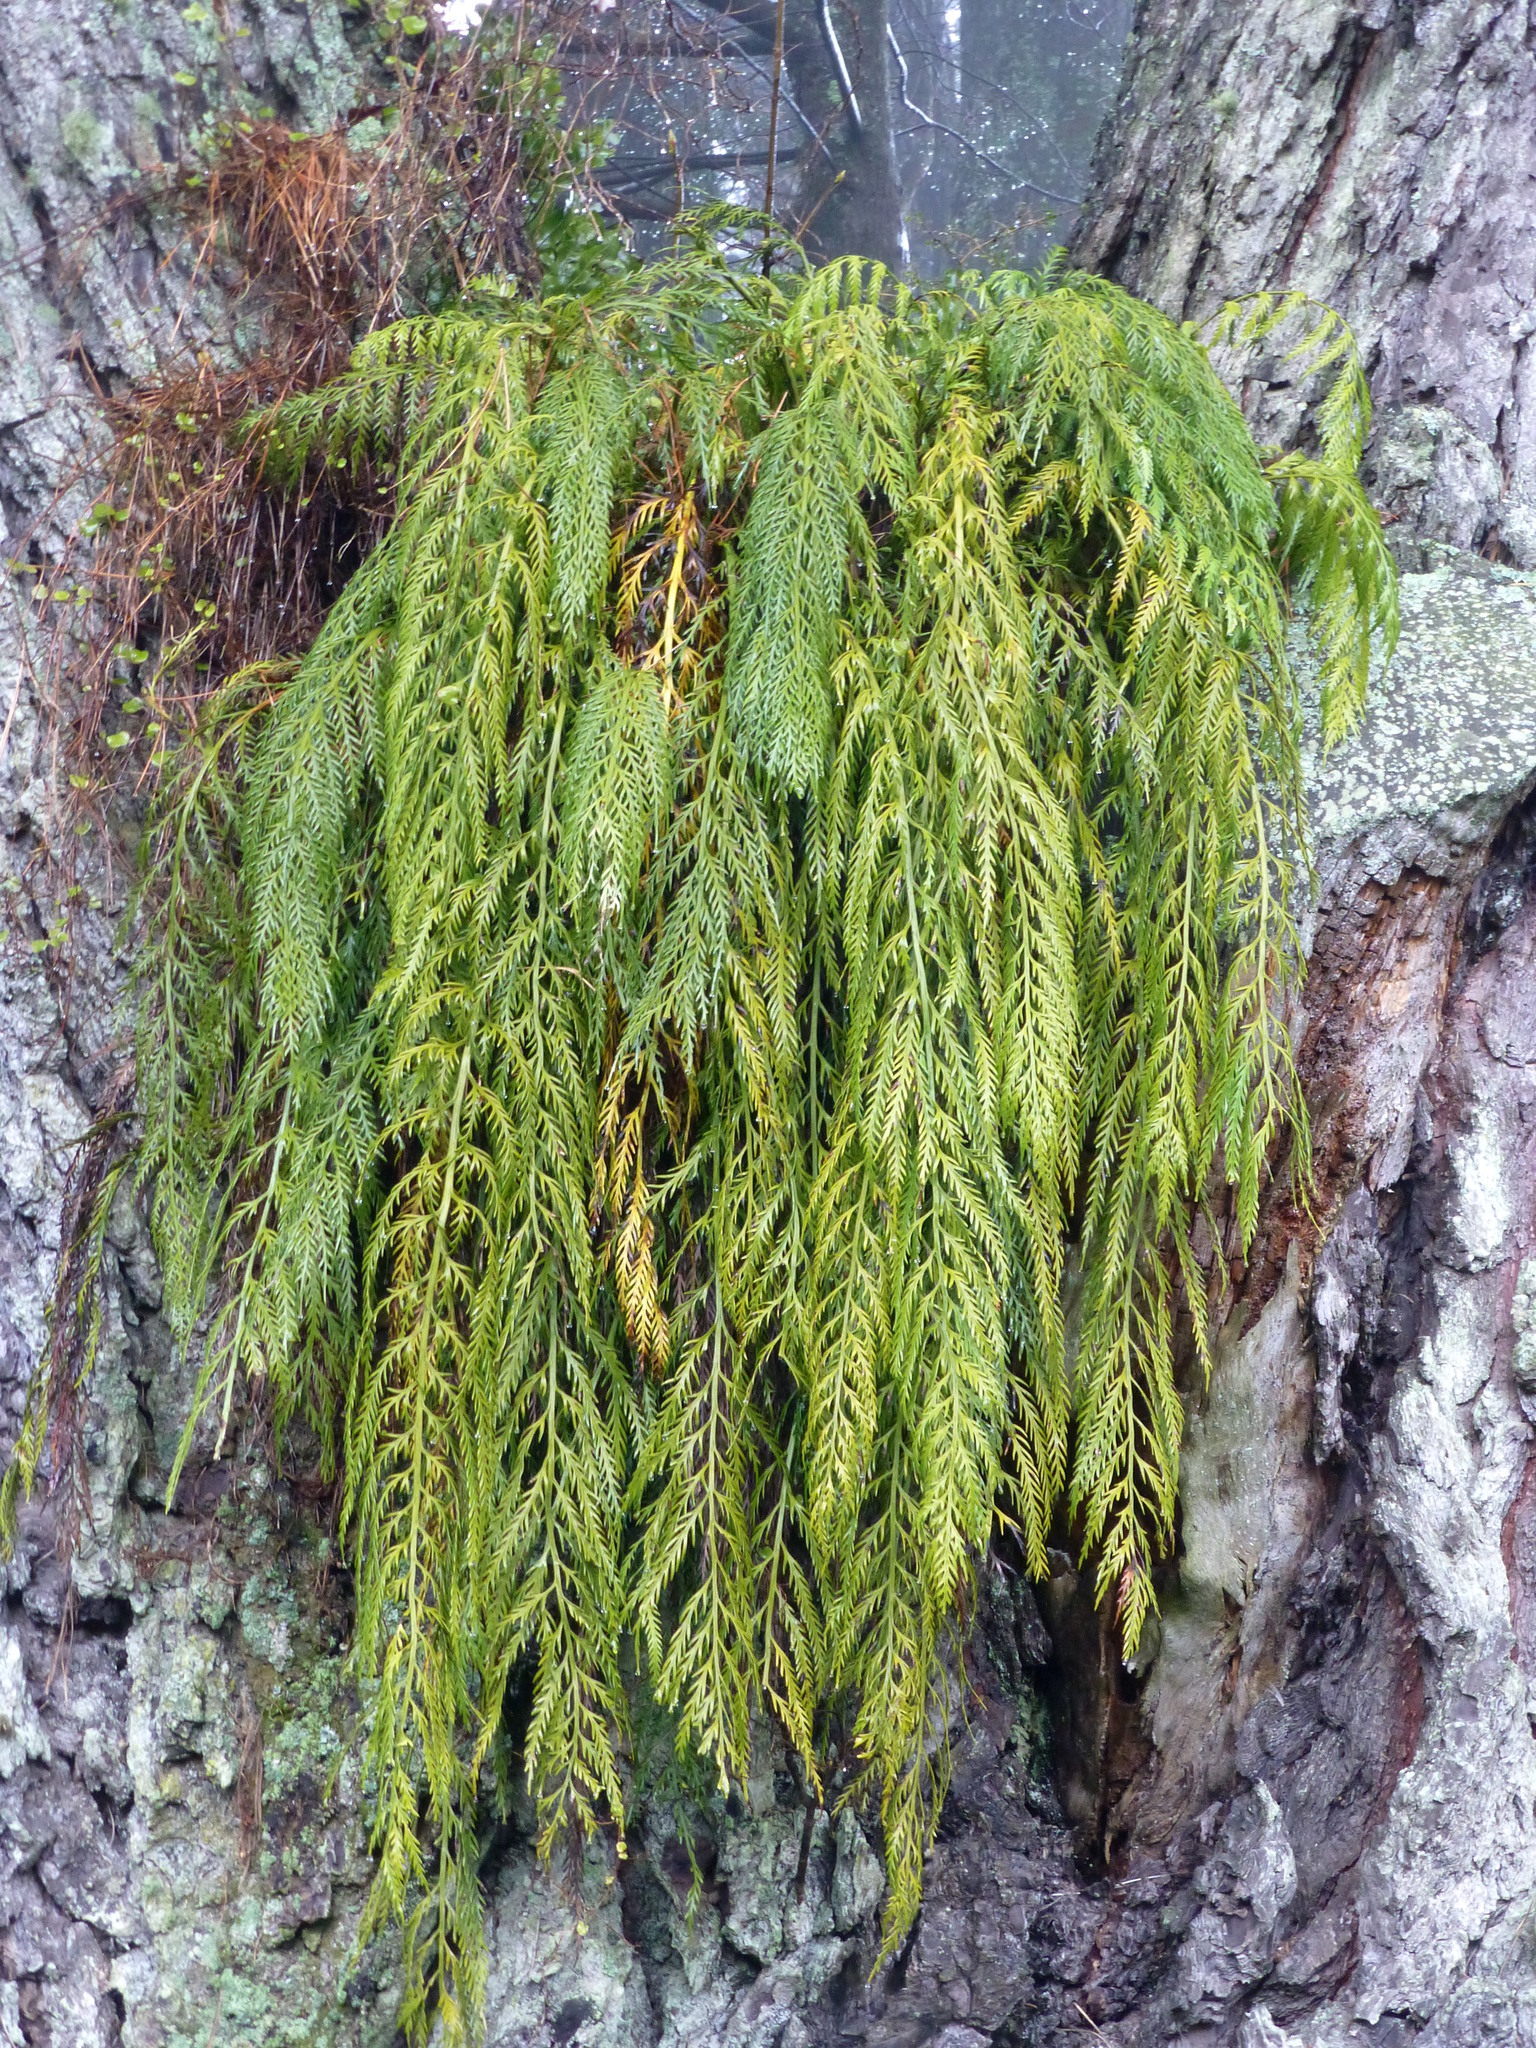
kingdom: Plantae
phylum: Tracheophyta
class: Polypodiopsida
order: Polypodiales
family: Aspleniaceae
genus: Asplenium
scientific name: Asplenium flaccidum
